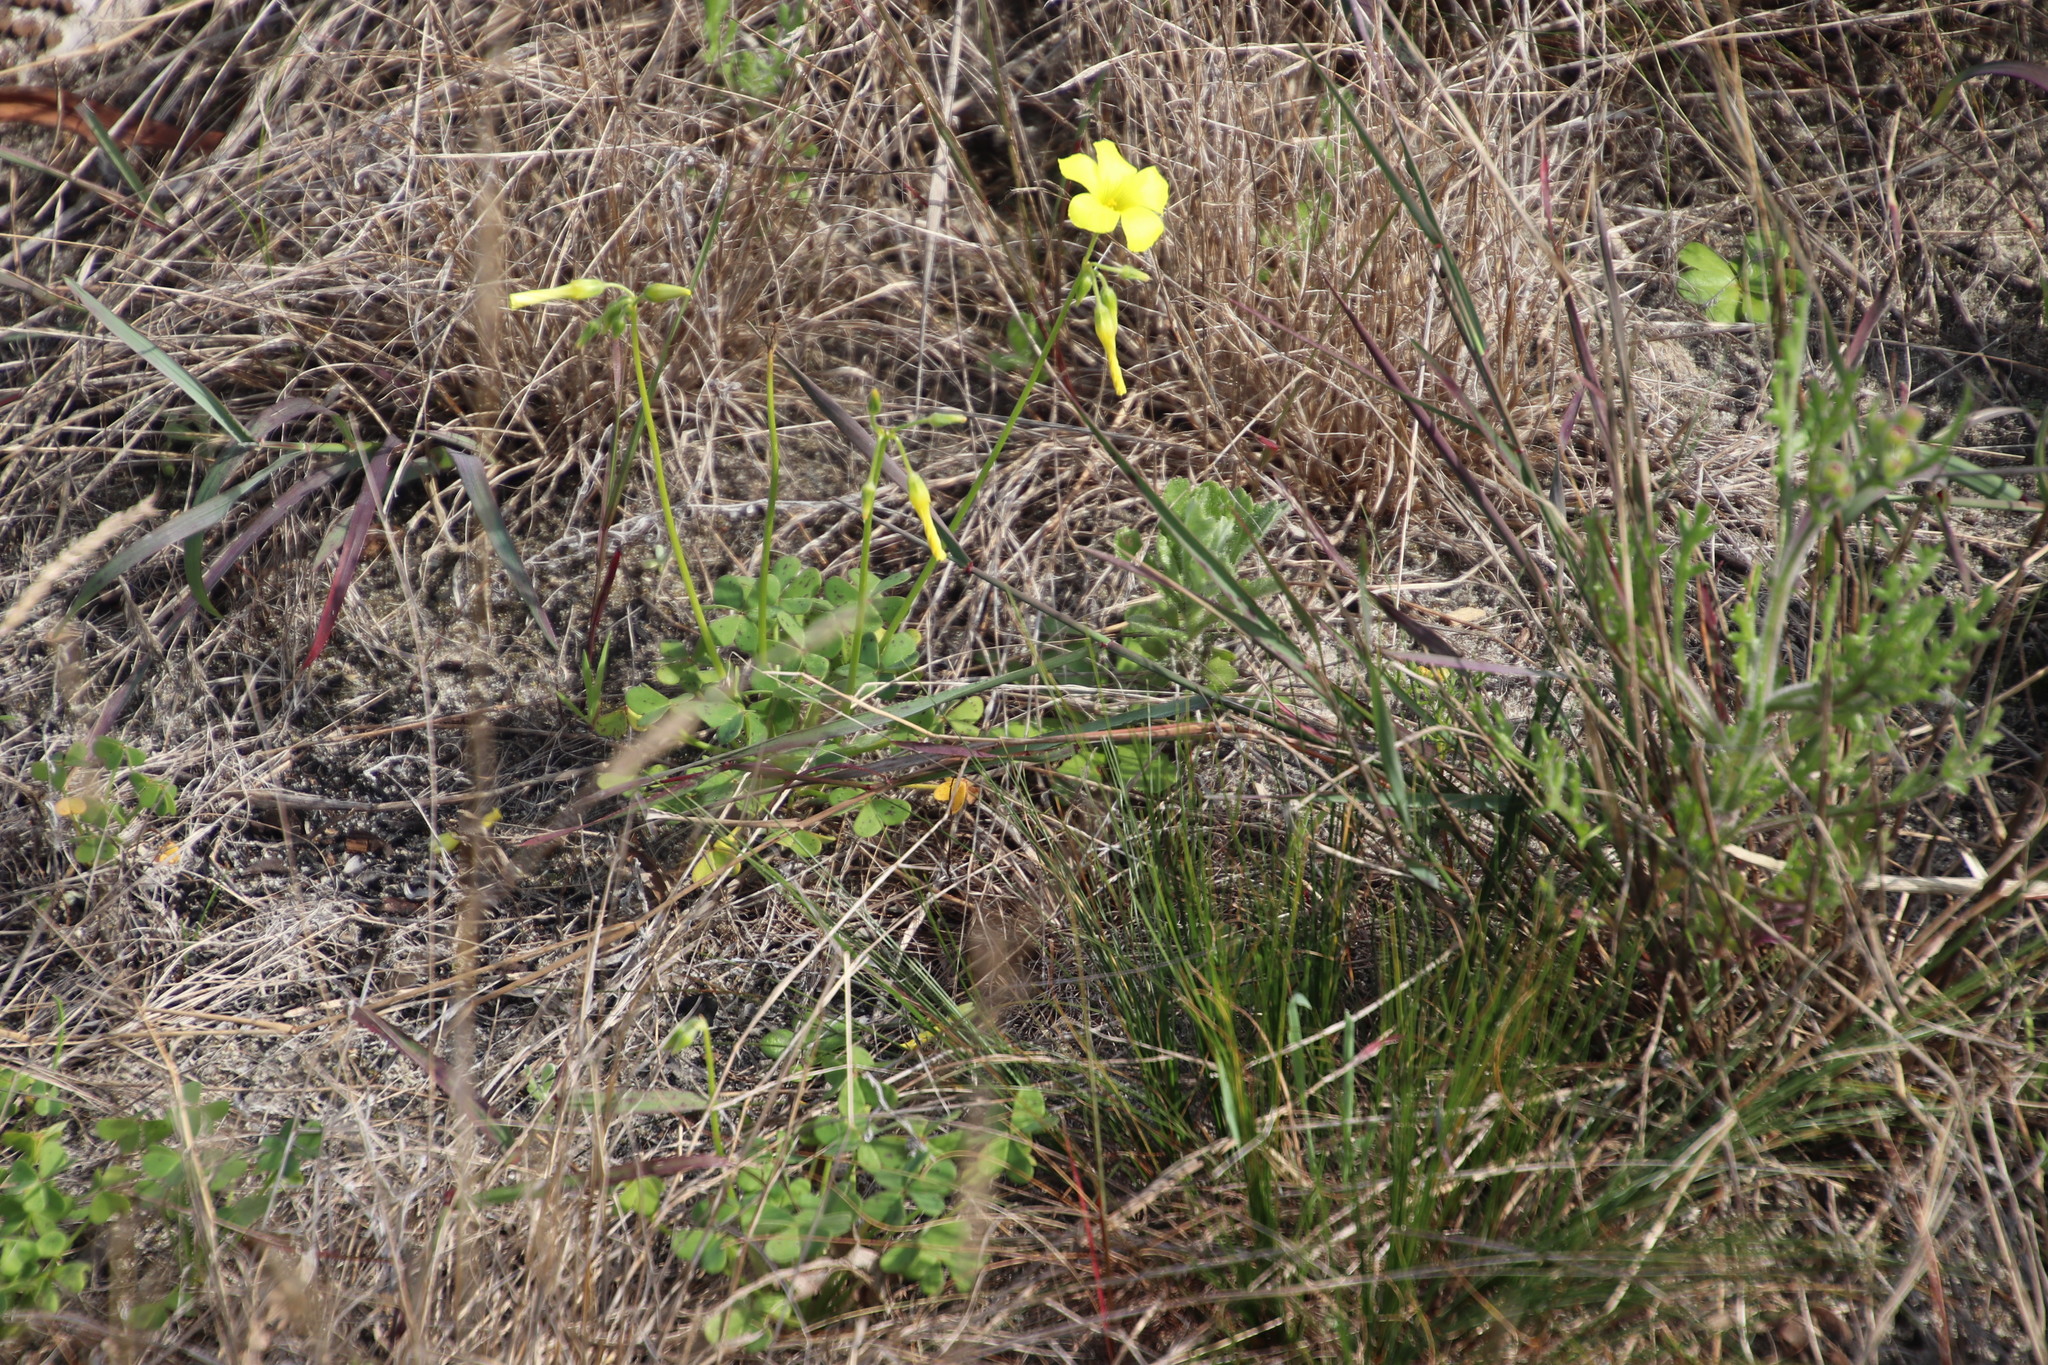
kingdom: Plantae
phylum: Tracheophyta
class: Magnoliopsida
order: Oxalidales
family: Oxalidaceae
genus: Oxalis
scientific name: Oxalis pes-caprae
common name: Bermuda-buttercup
